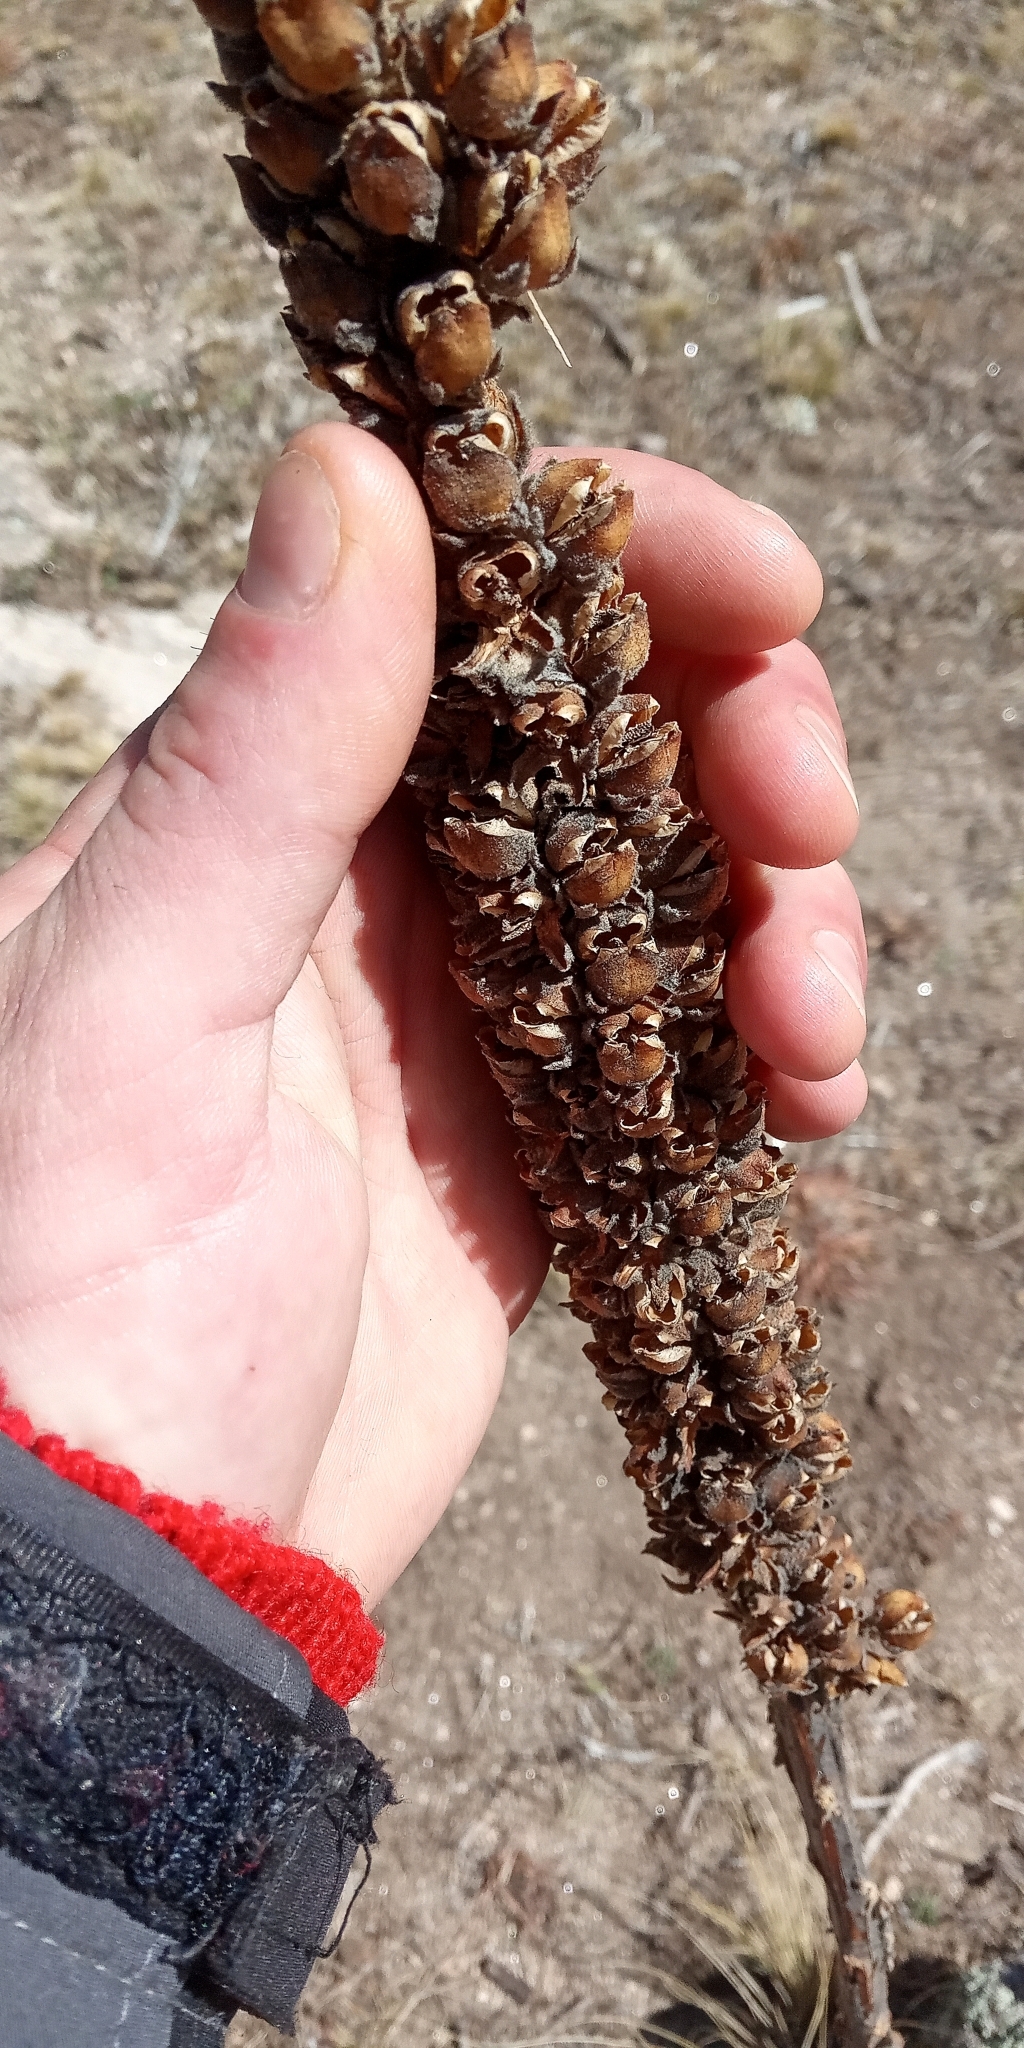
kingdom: Plantae
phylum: Tracheophyta
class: Magnoliopsida
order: Lamiales
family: Scrophulariaceae
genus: Verbascum
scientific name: Verbascum thapsus
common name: Common mullein
